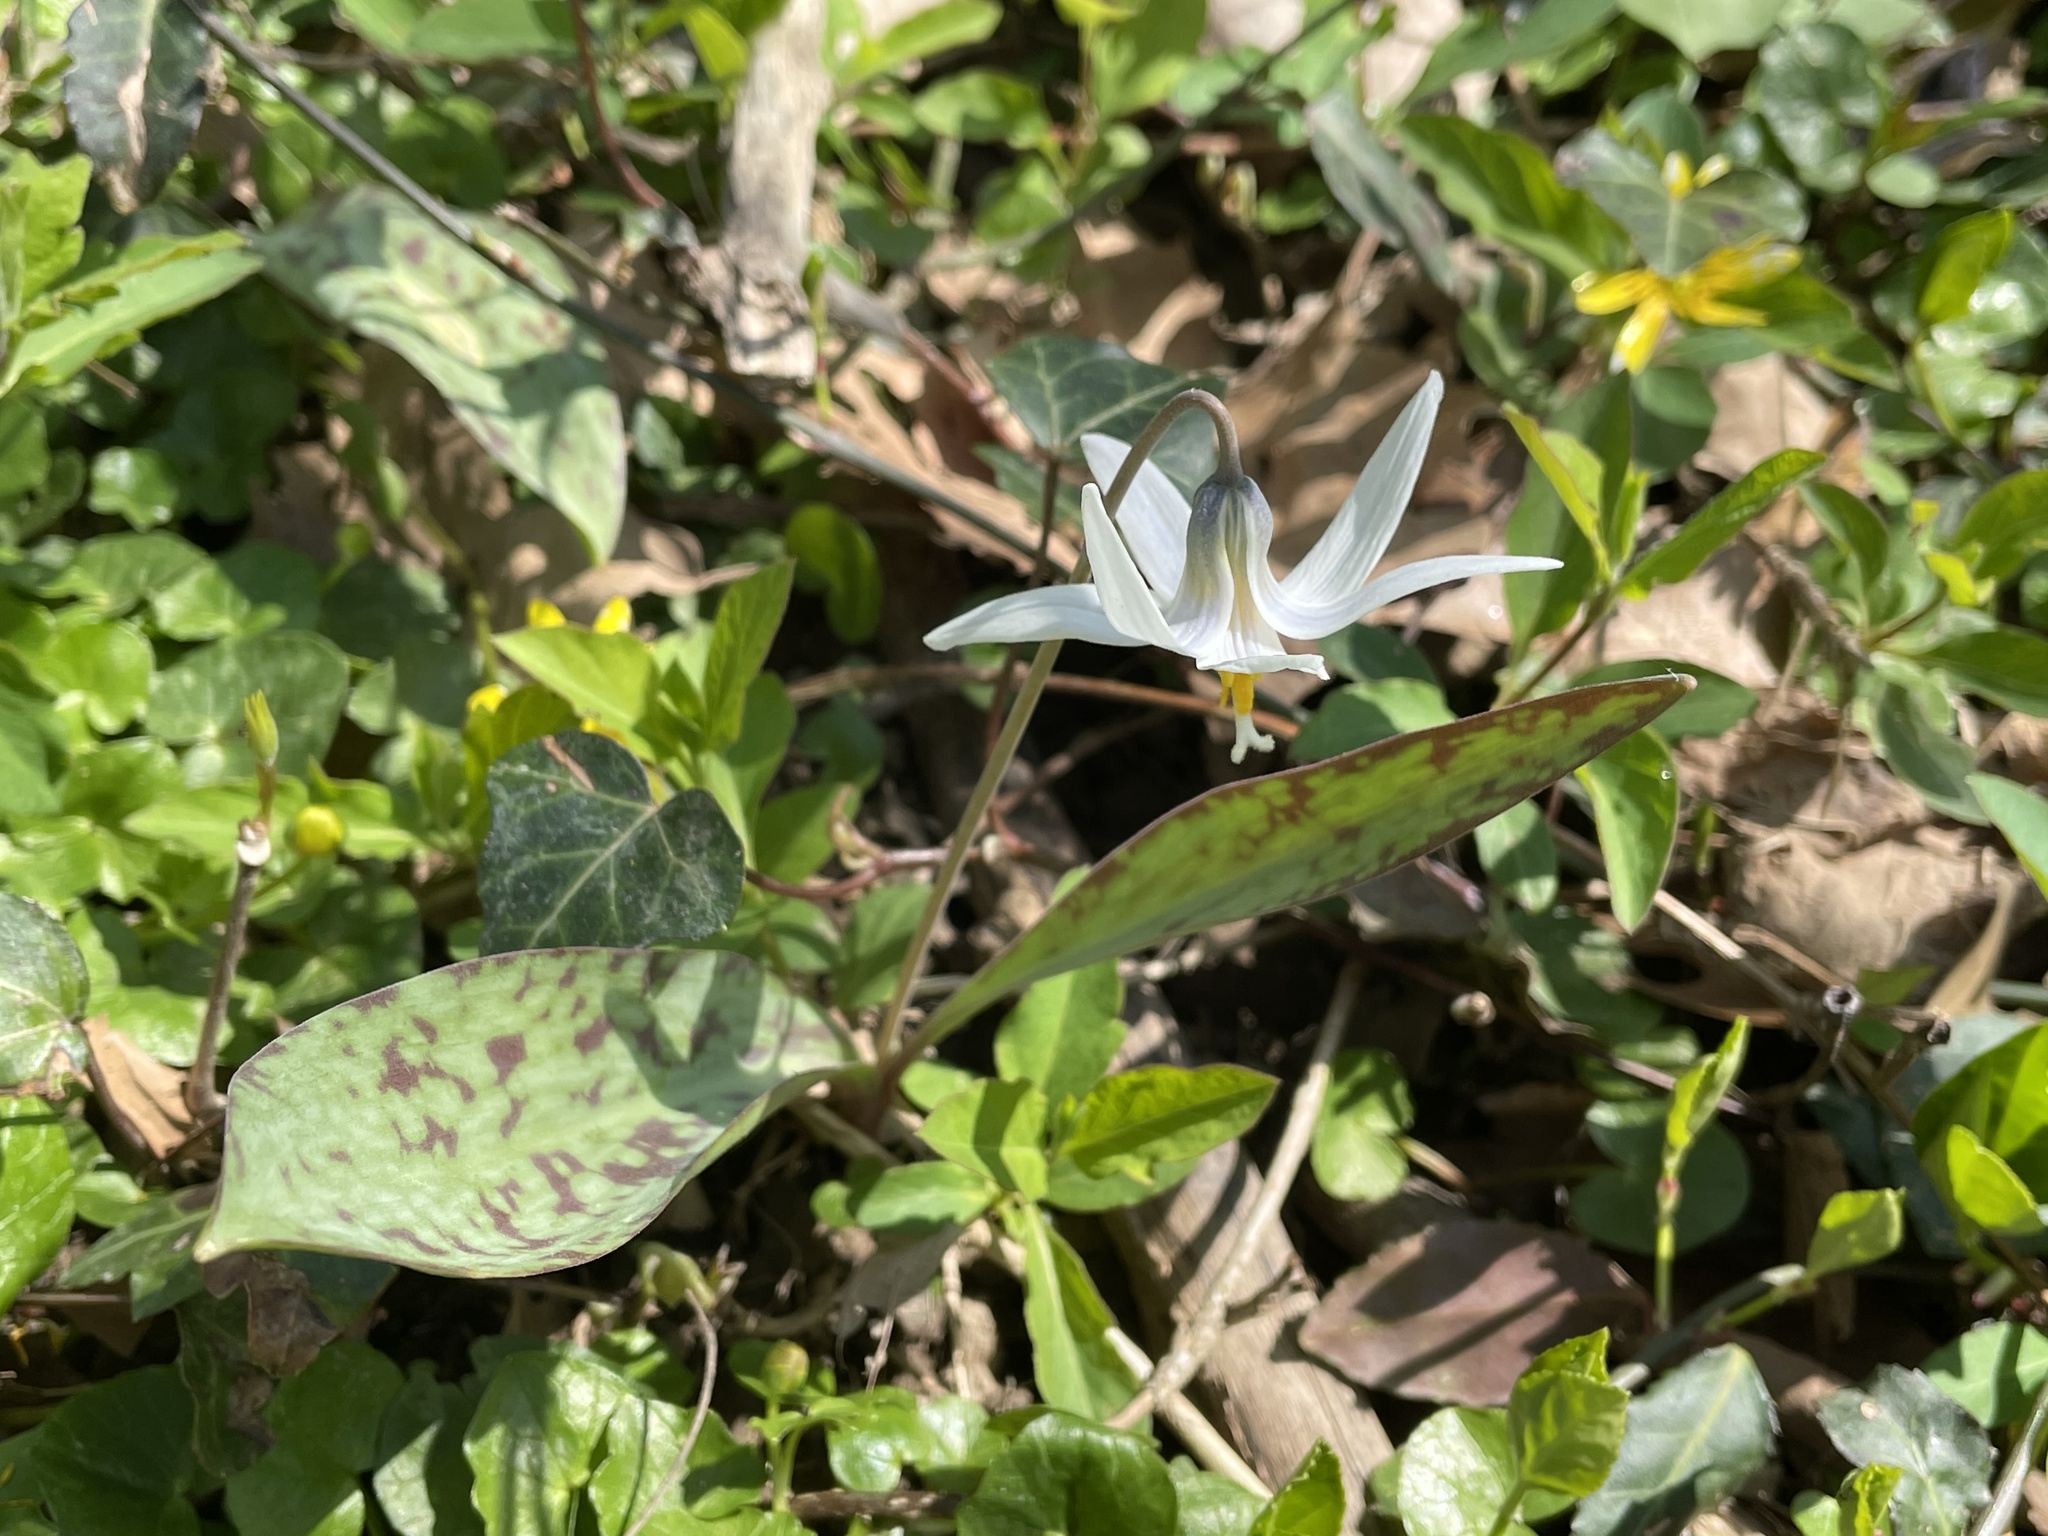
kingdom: Plantae
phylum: Tracheophyta
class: Liliopsida
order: Liliales
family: Liliaceae
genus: Erythronium
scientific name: Erythronium albidum
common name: White trout-lily
